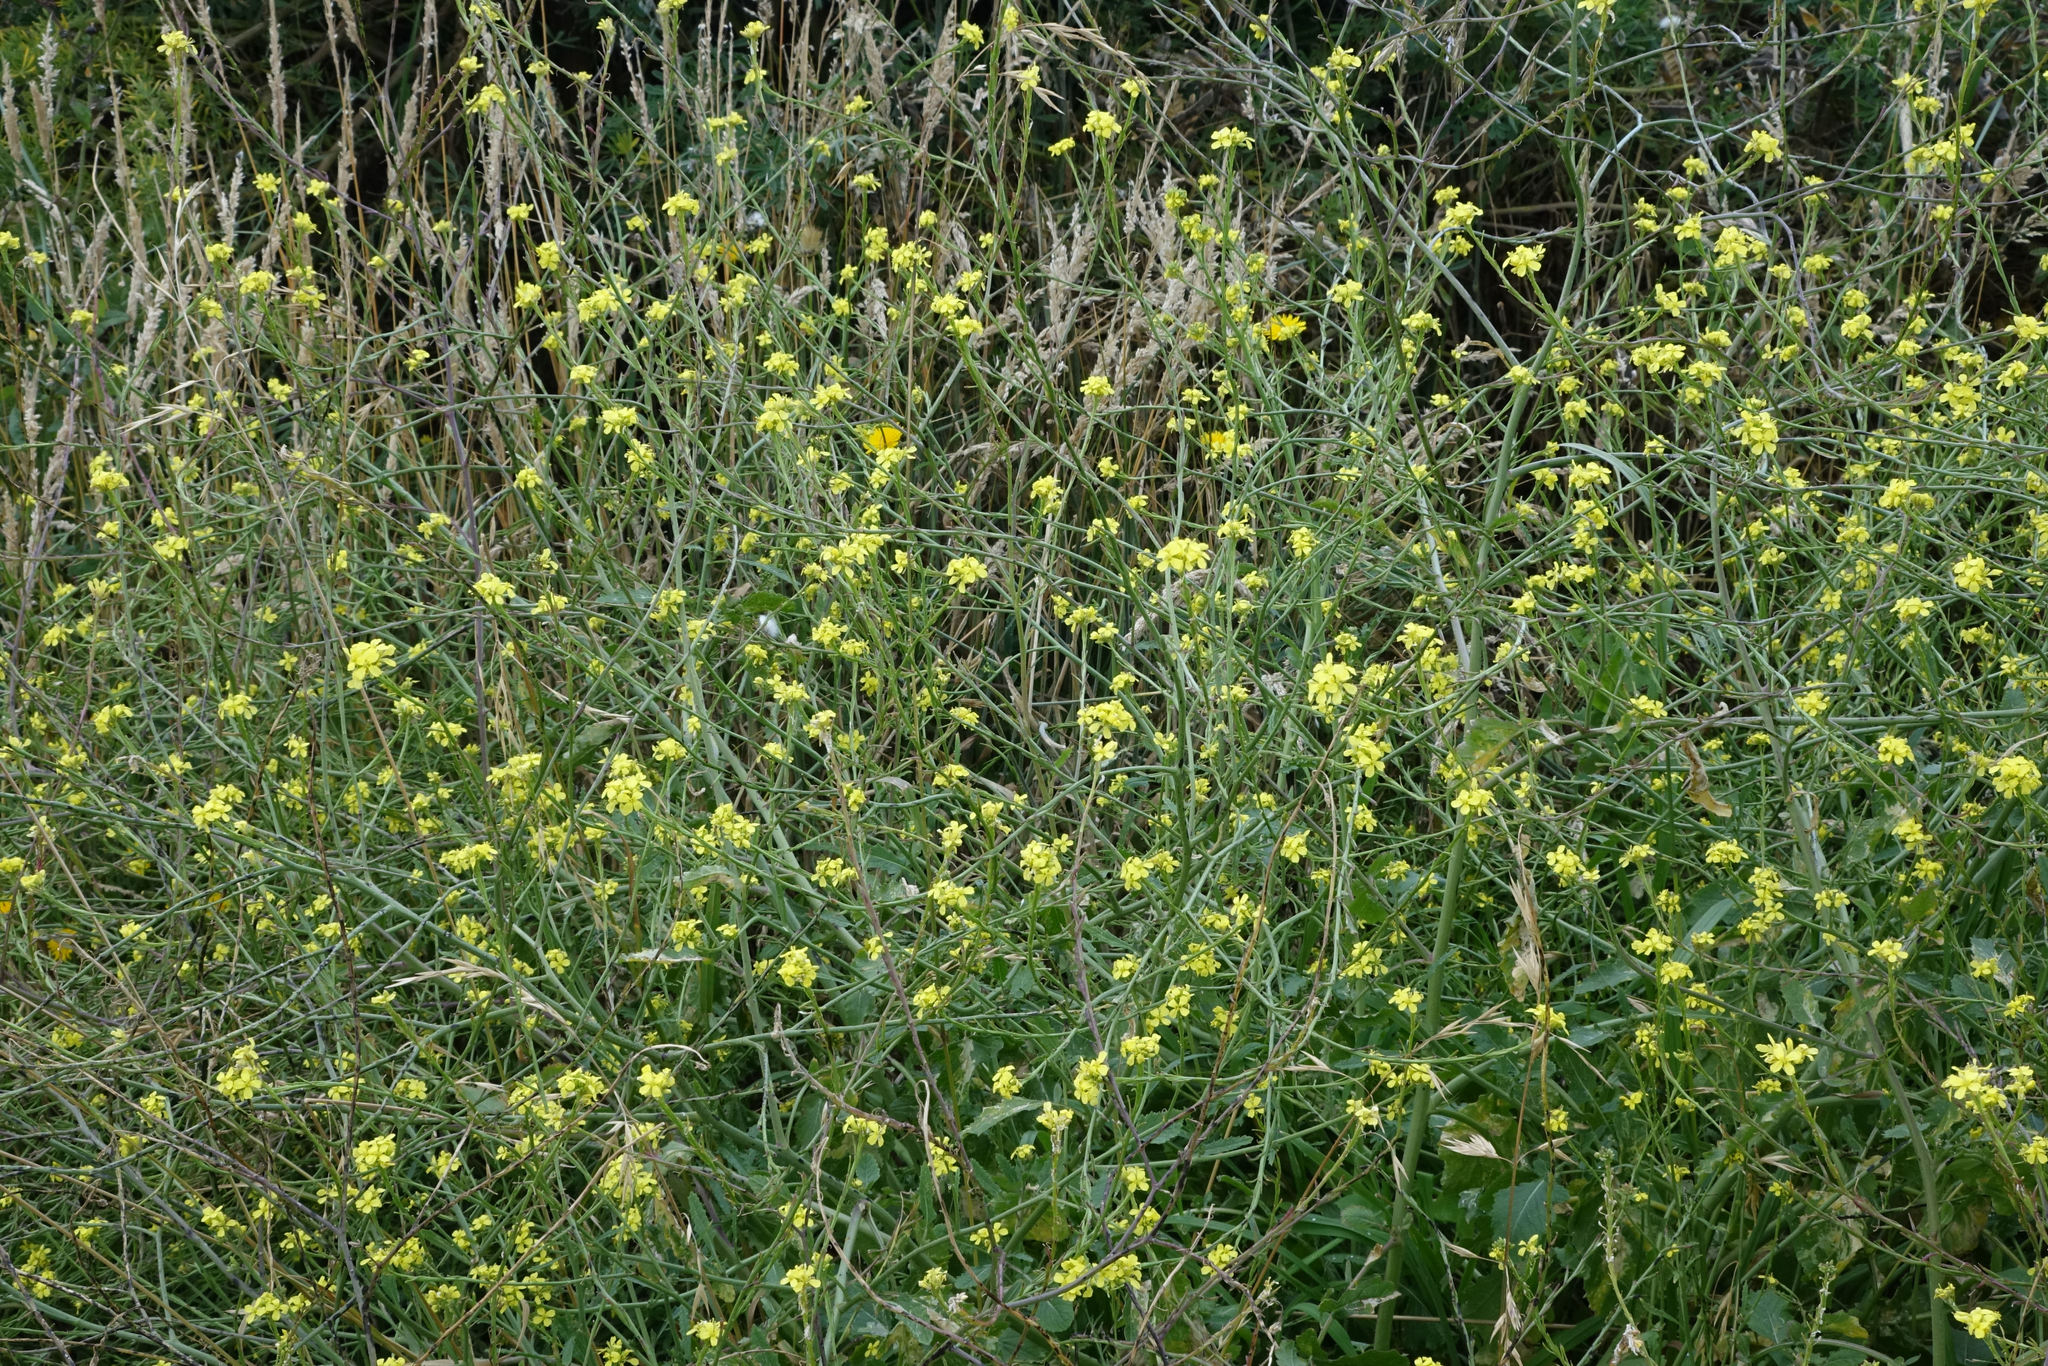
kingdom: Plantae
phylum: Tracheophyta
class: Magnoliopsida
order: Brassicales
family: Brassicaceae
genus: Sisymbrium
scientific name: Sisymbrium officinale
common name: Hedge mustard
